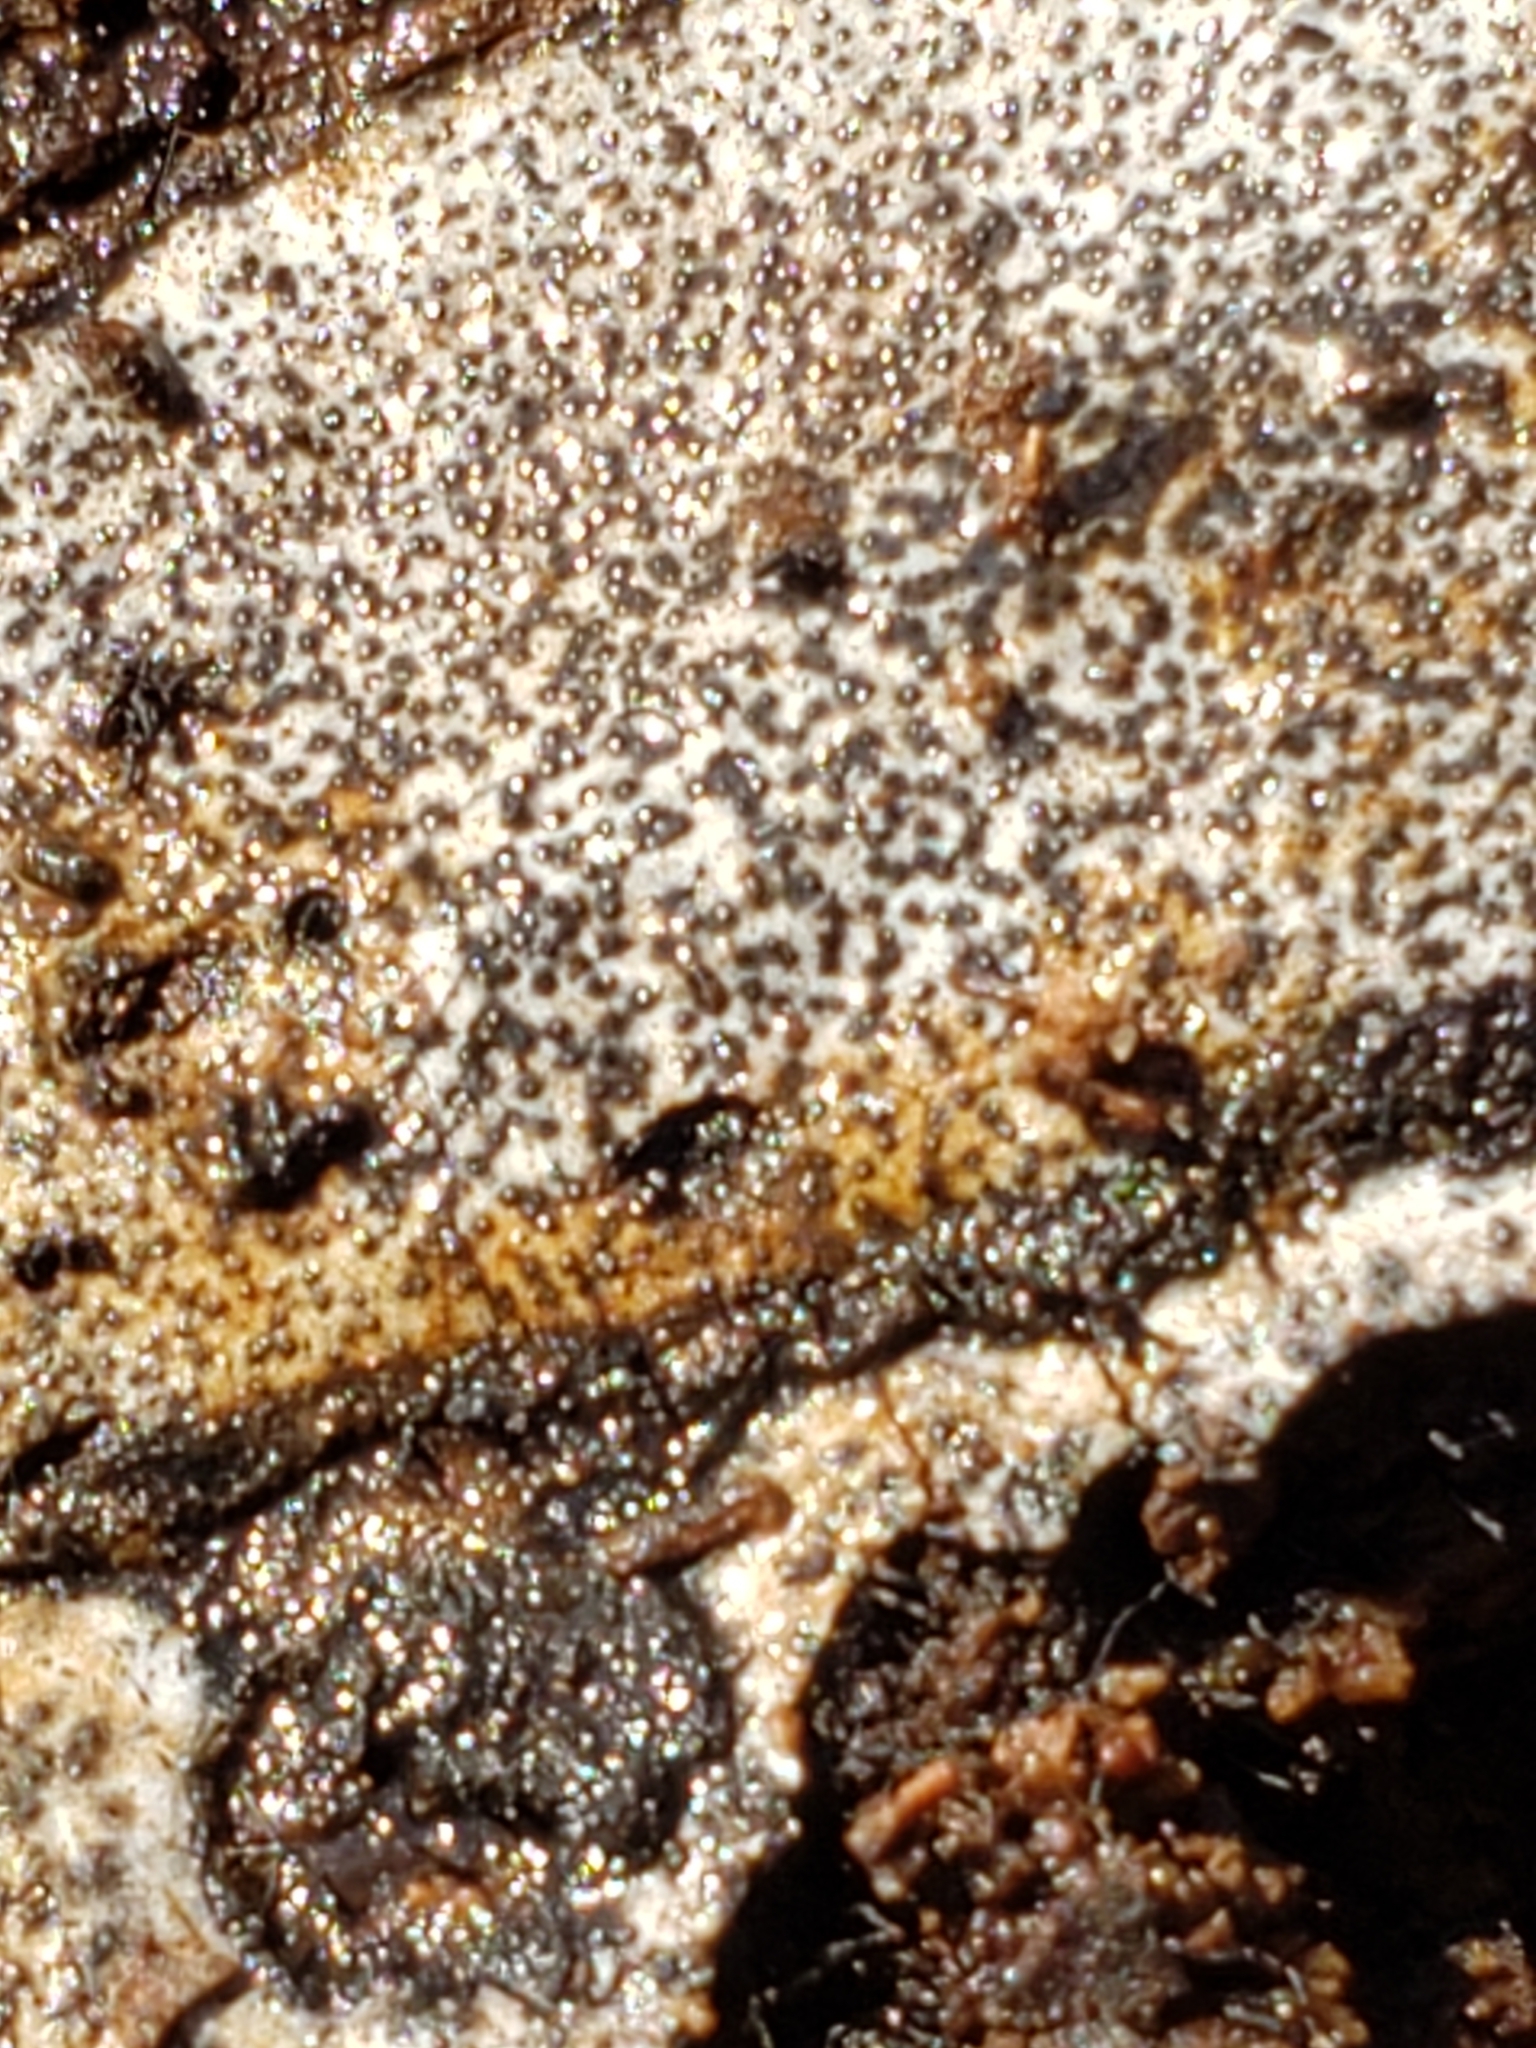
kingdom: Fungi
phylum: Ascomycota
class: Sordariomycetes
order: Xylariales
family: Graphostromataceae
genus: Biscogniauxia
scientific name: Biscogniauxia atropunctata
